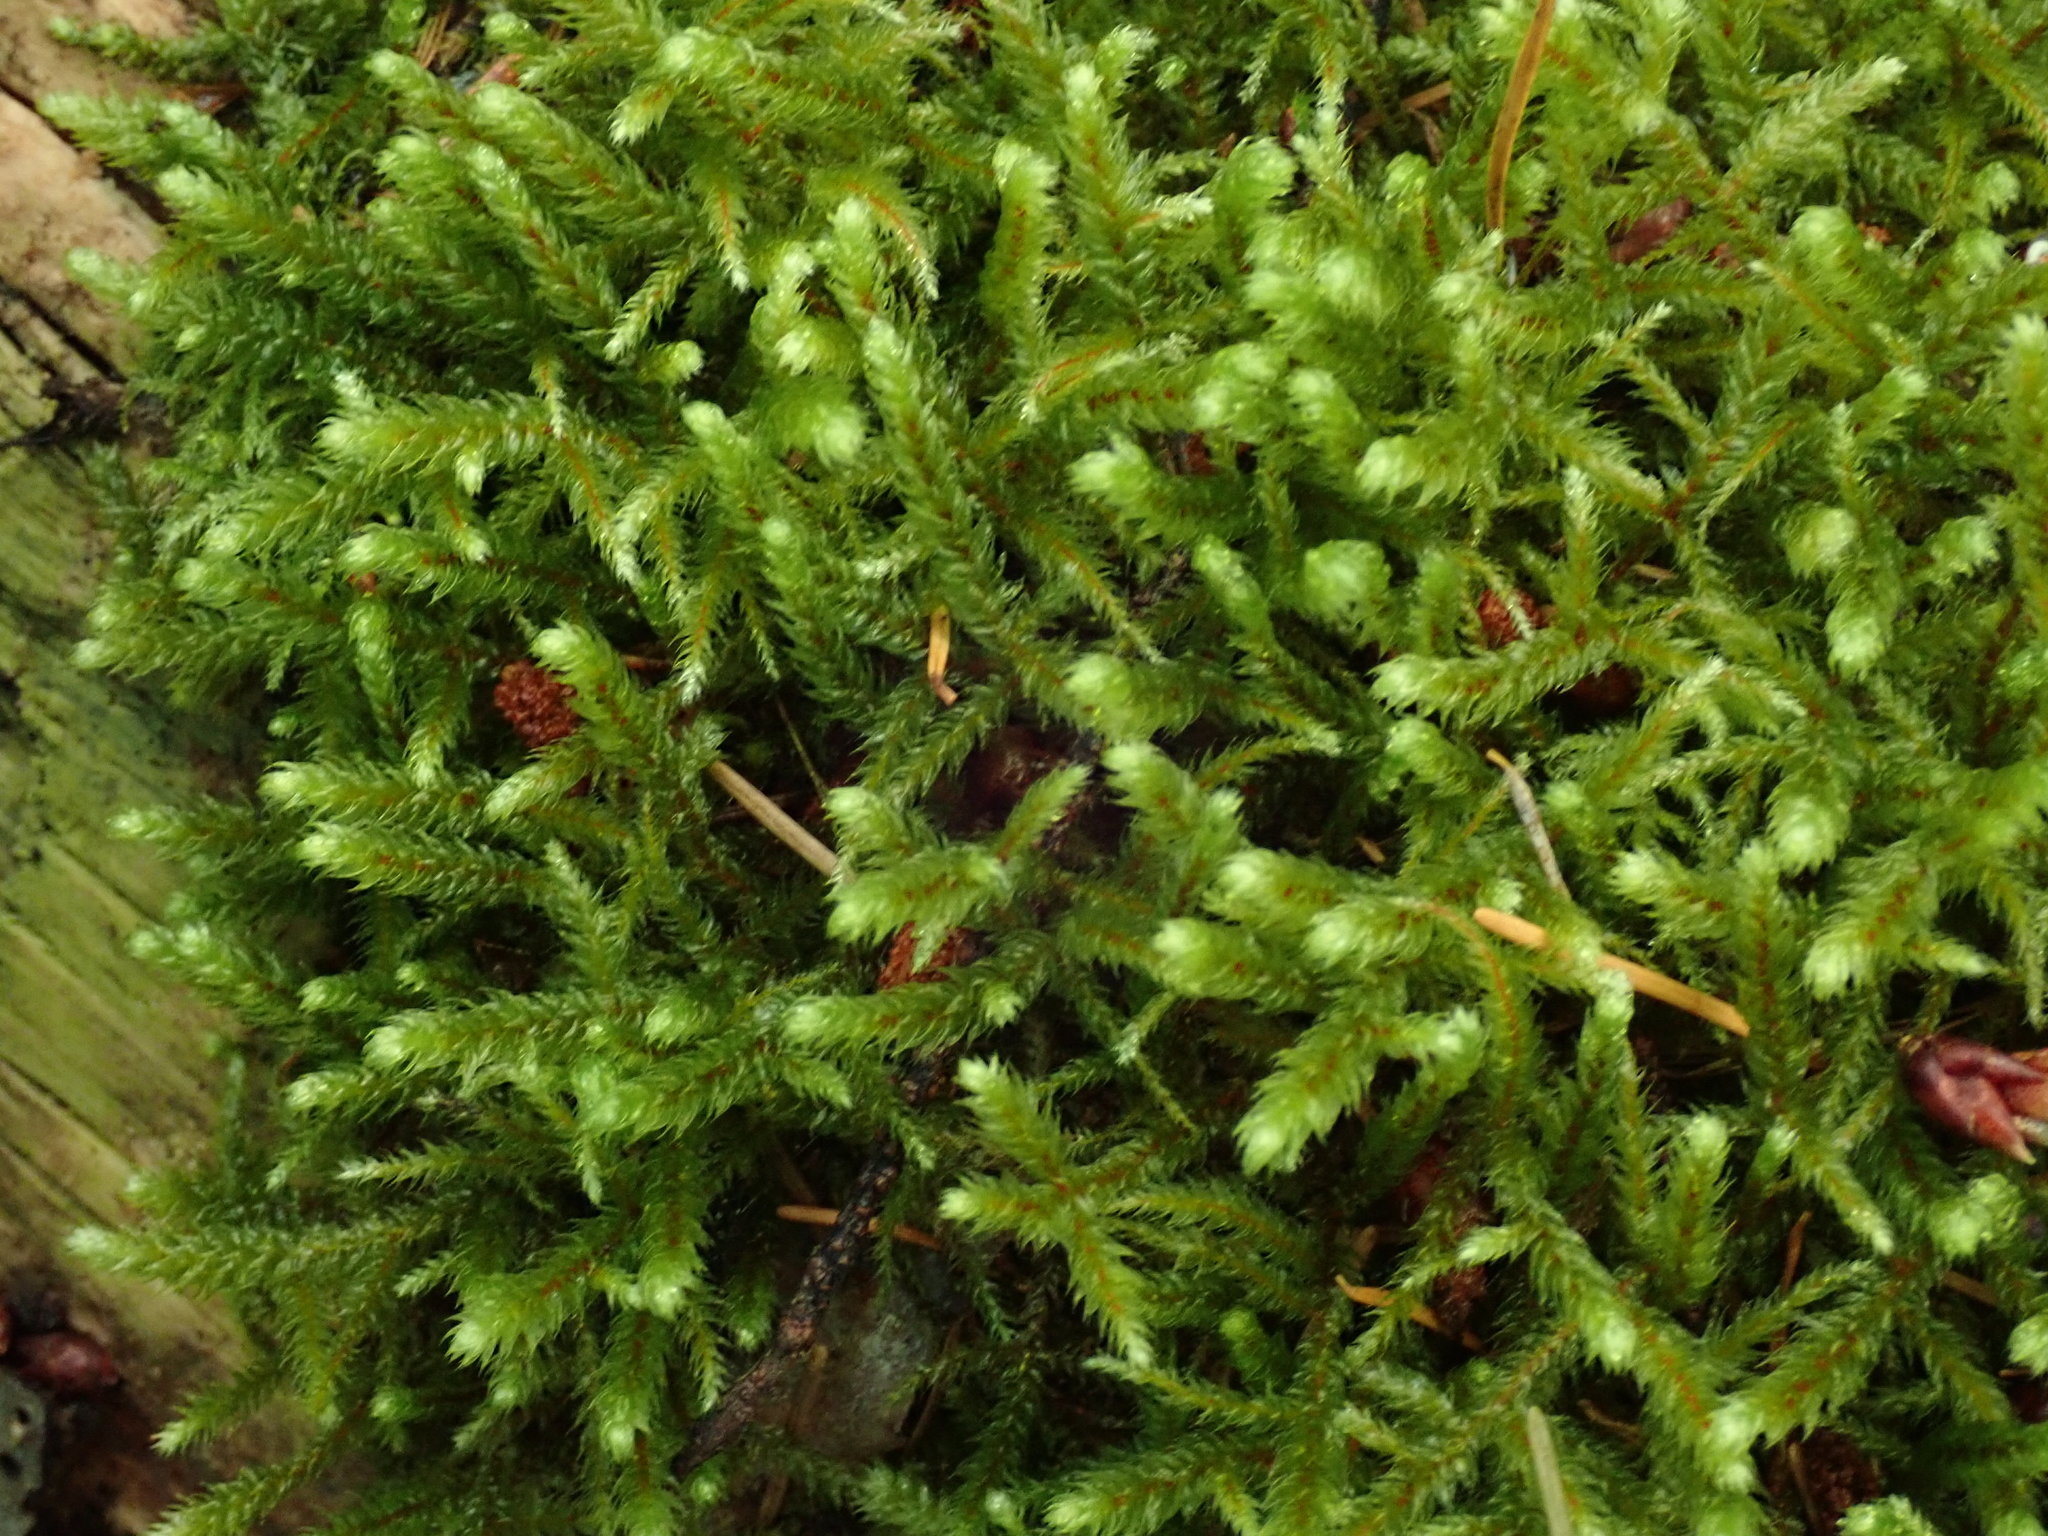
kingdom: Plantae
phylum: Bryophyta
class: Bryopsida
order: Hypnales
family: Antitrichiaceae
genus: Antitrichia
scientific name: Antitrichia curtipendula
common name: Pendulous wing-moss
